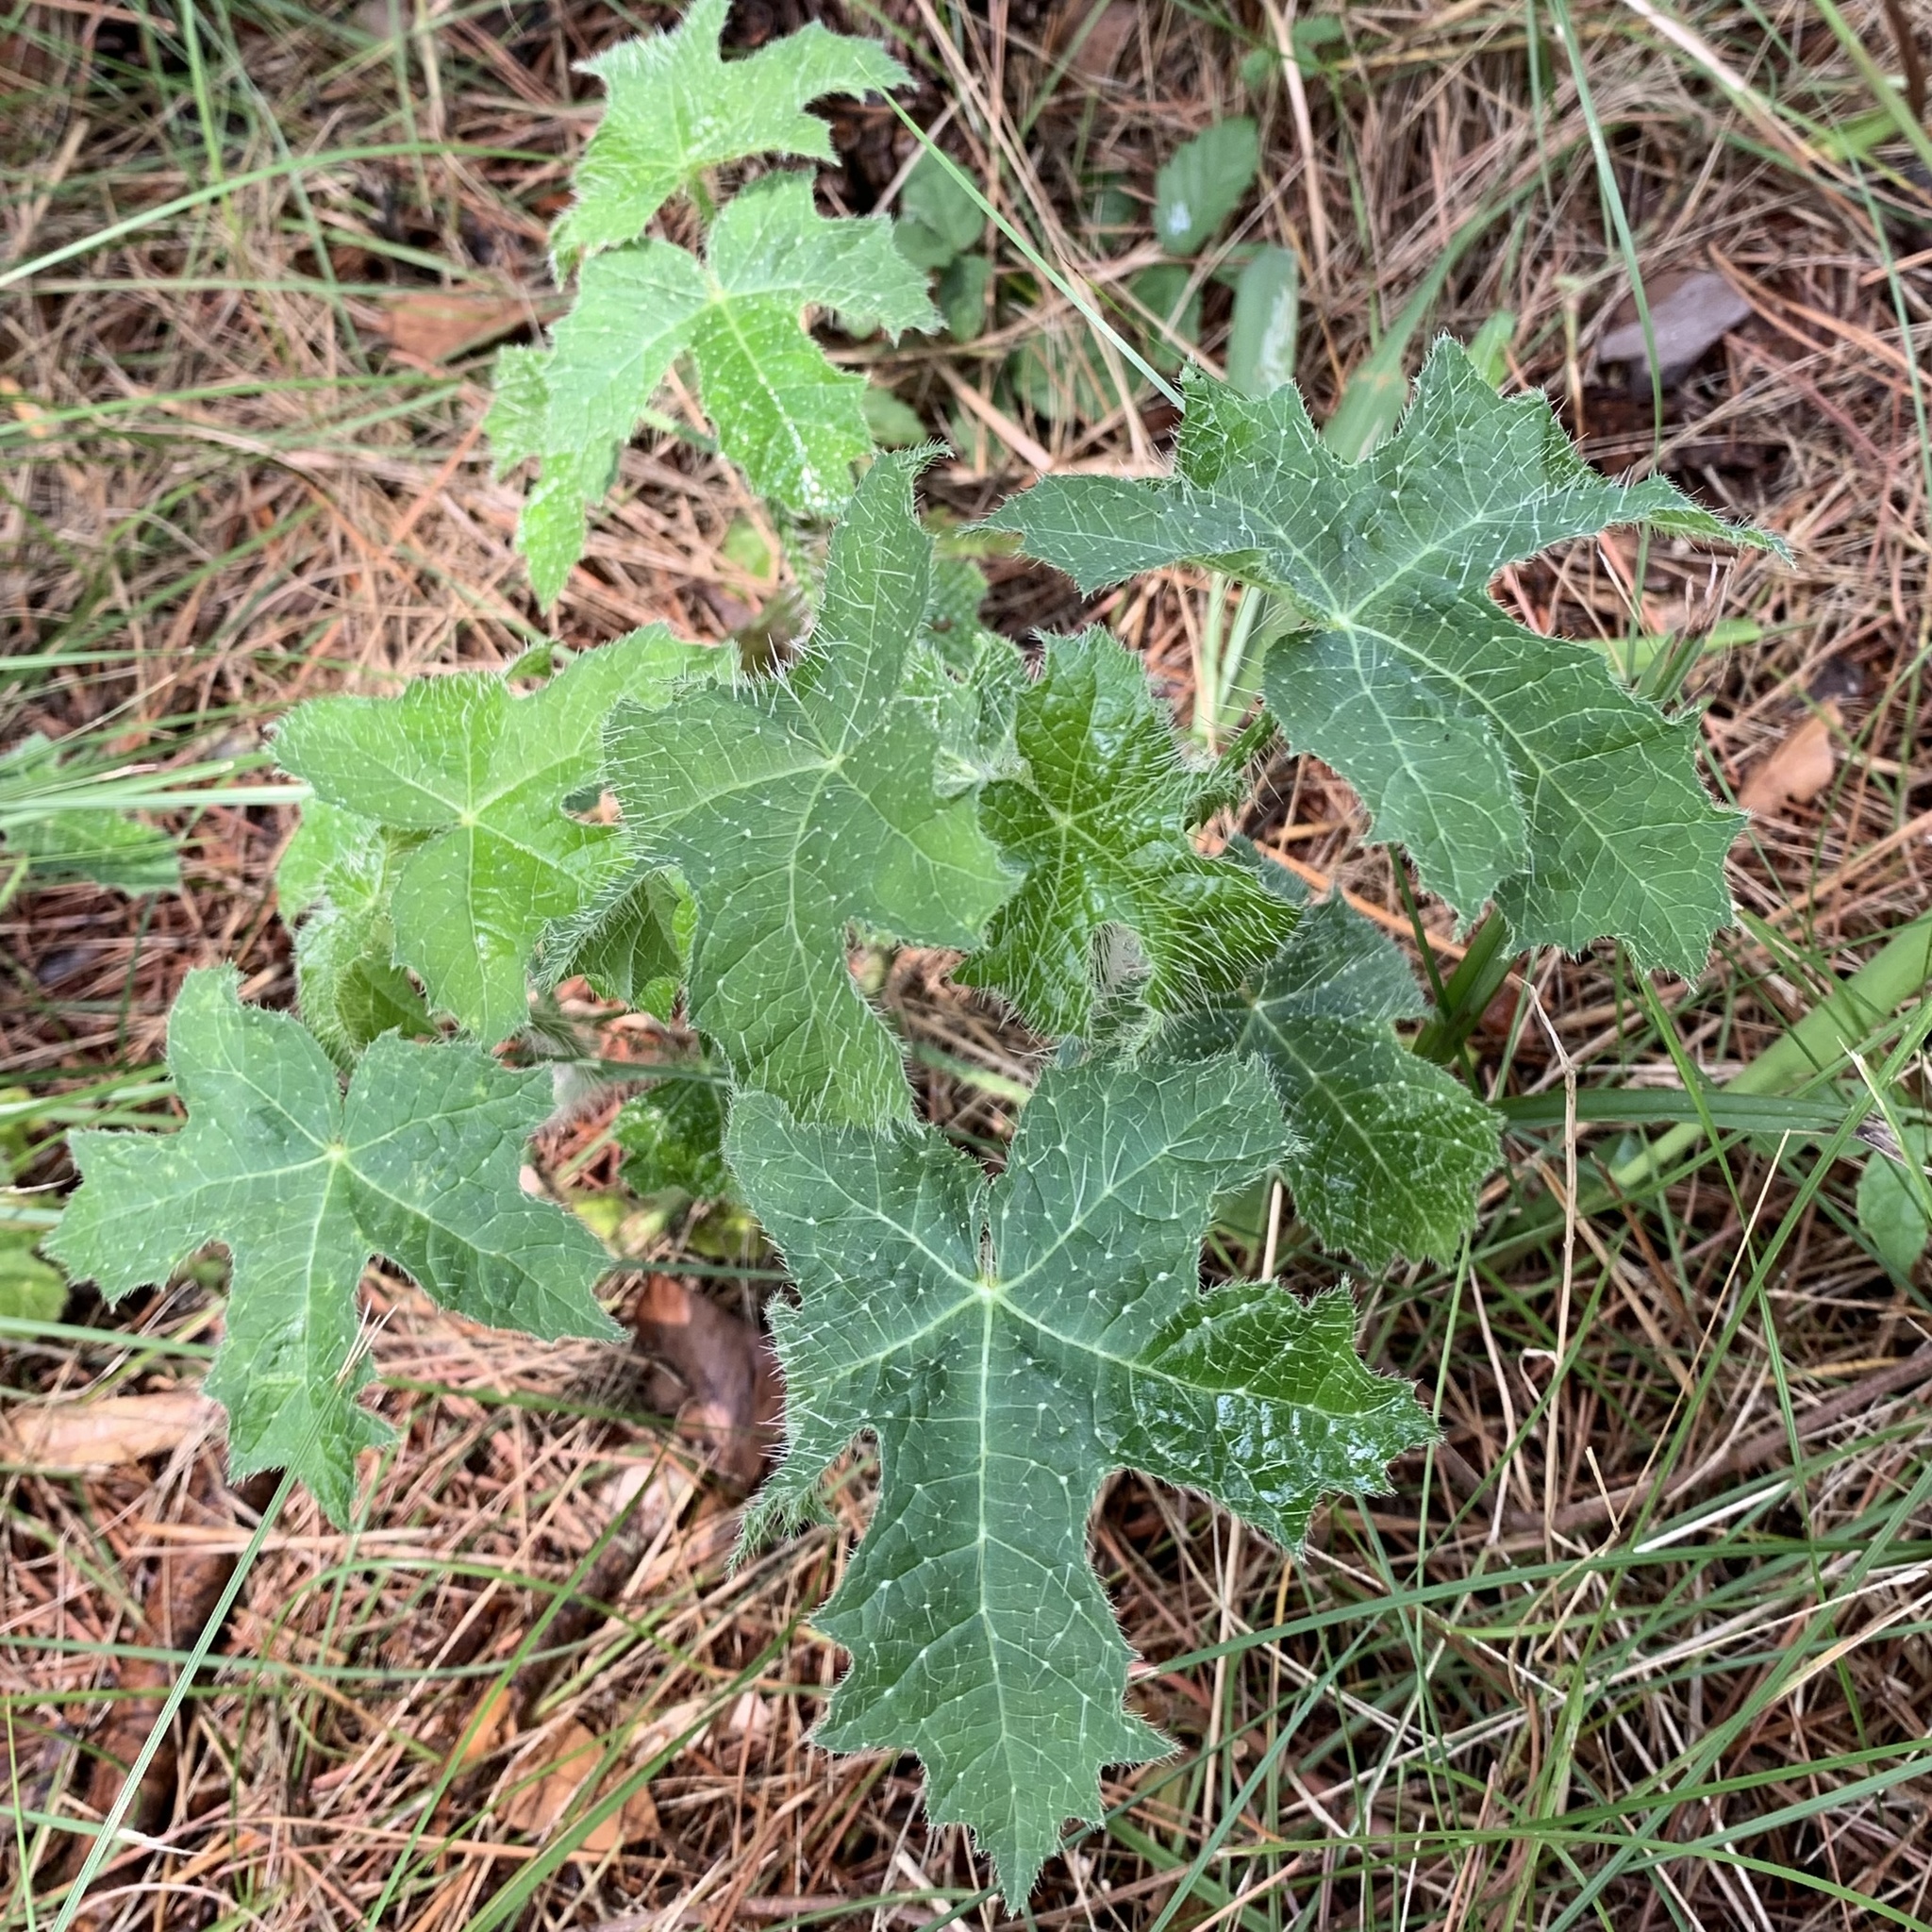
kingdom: Plantae
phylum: Tracheophyta
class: Magnoliopsida
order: Malpighiales
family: Euphorbiaceae
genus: Cnidoscolus
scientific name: Cnidoscolus texanus
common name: Texas bull-nettle
